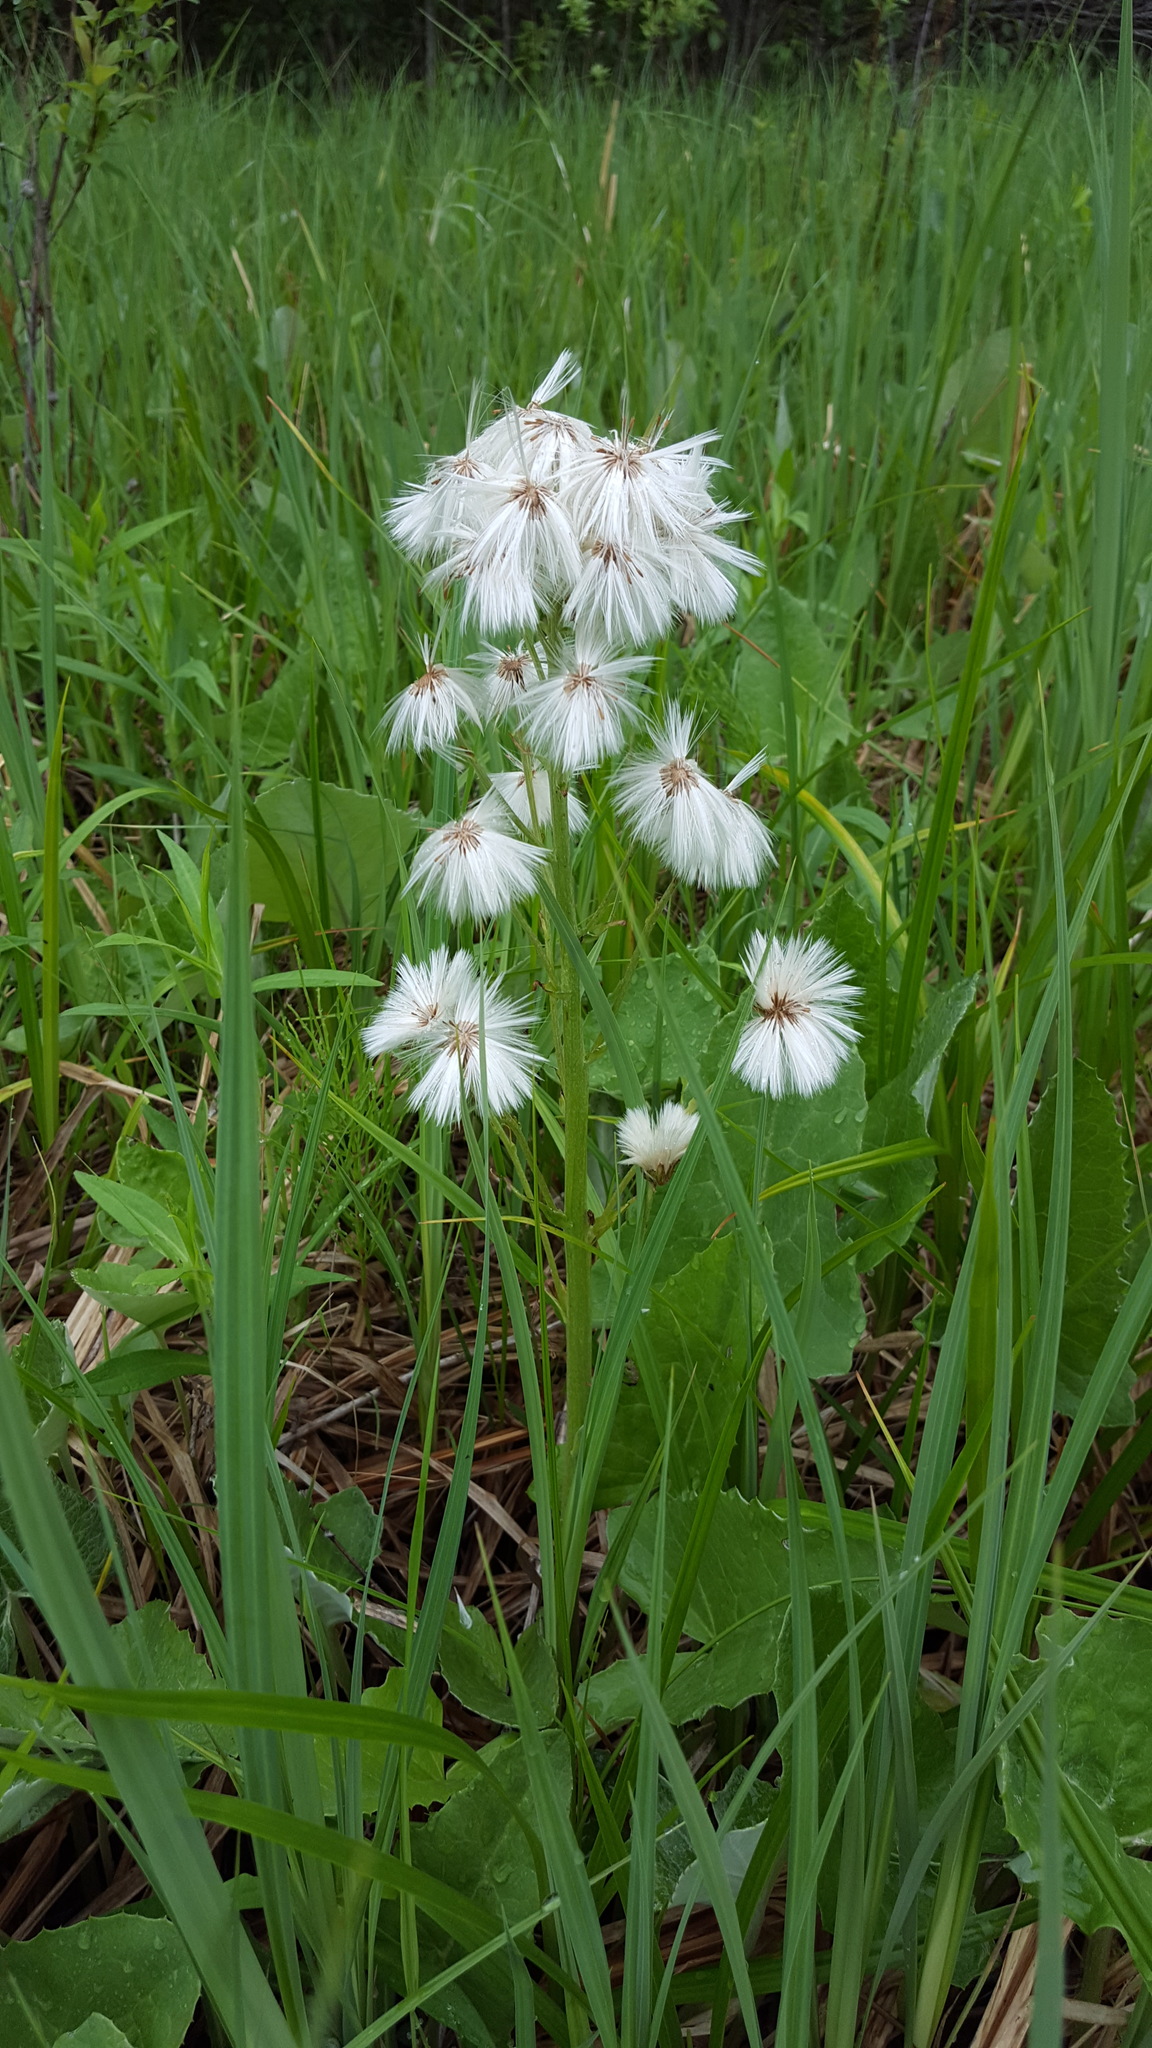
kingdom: Plantae
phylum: Tracheophyta
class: Magnoliopsida
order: Asterales
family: Asteraceae
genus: Petasites
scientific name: Petasites frigidus
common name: Arctic butterbur
